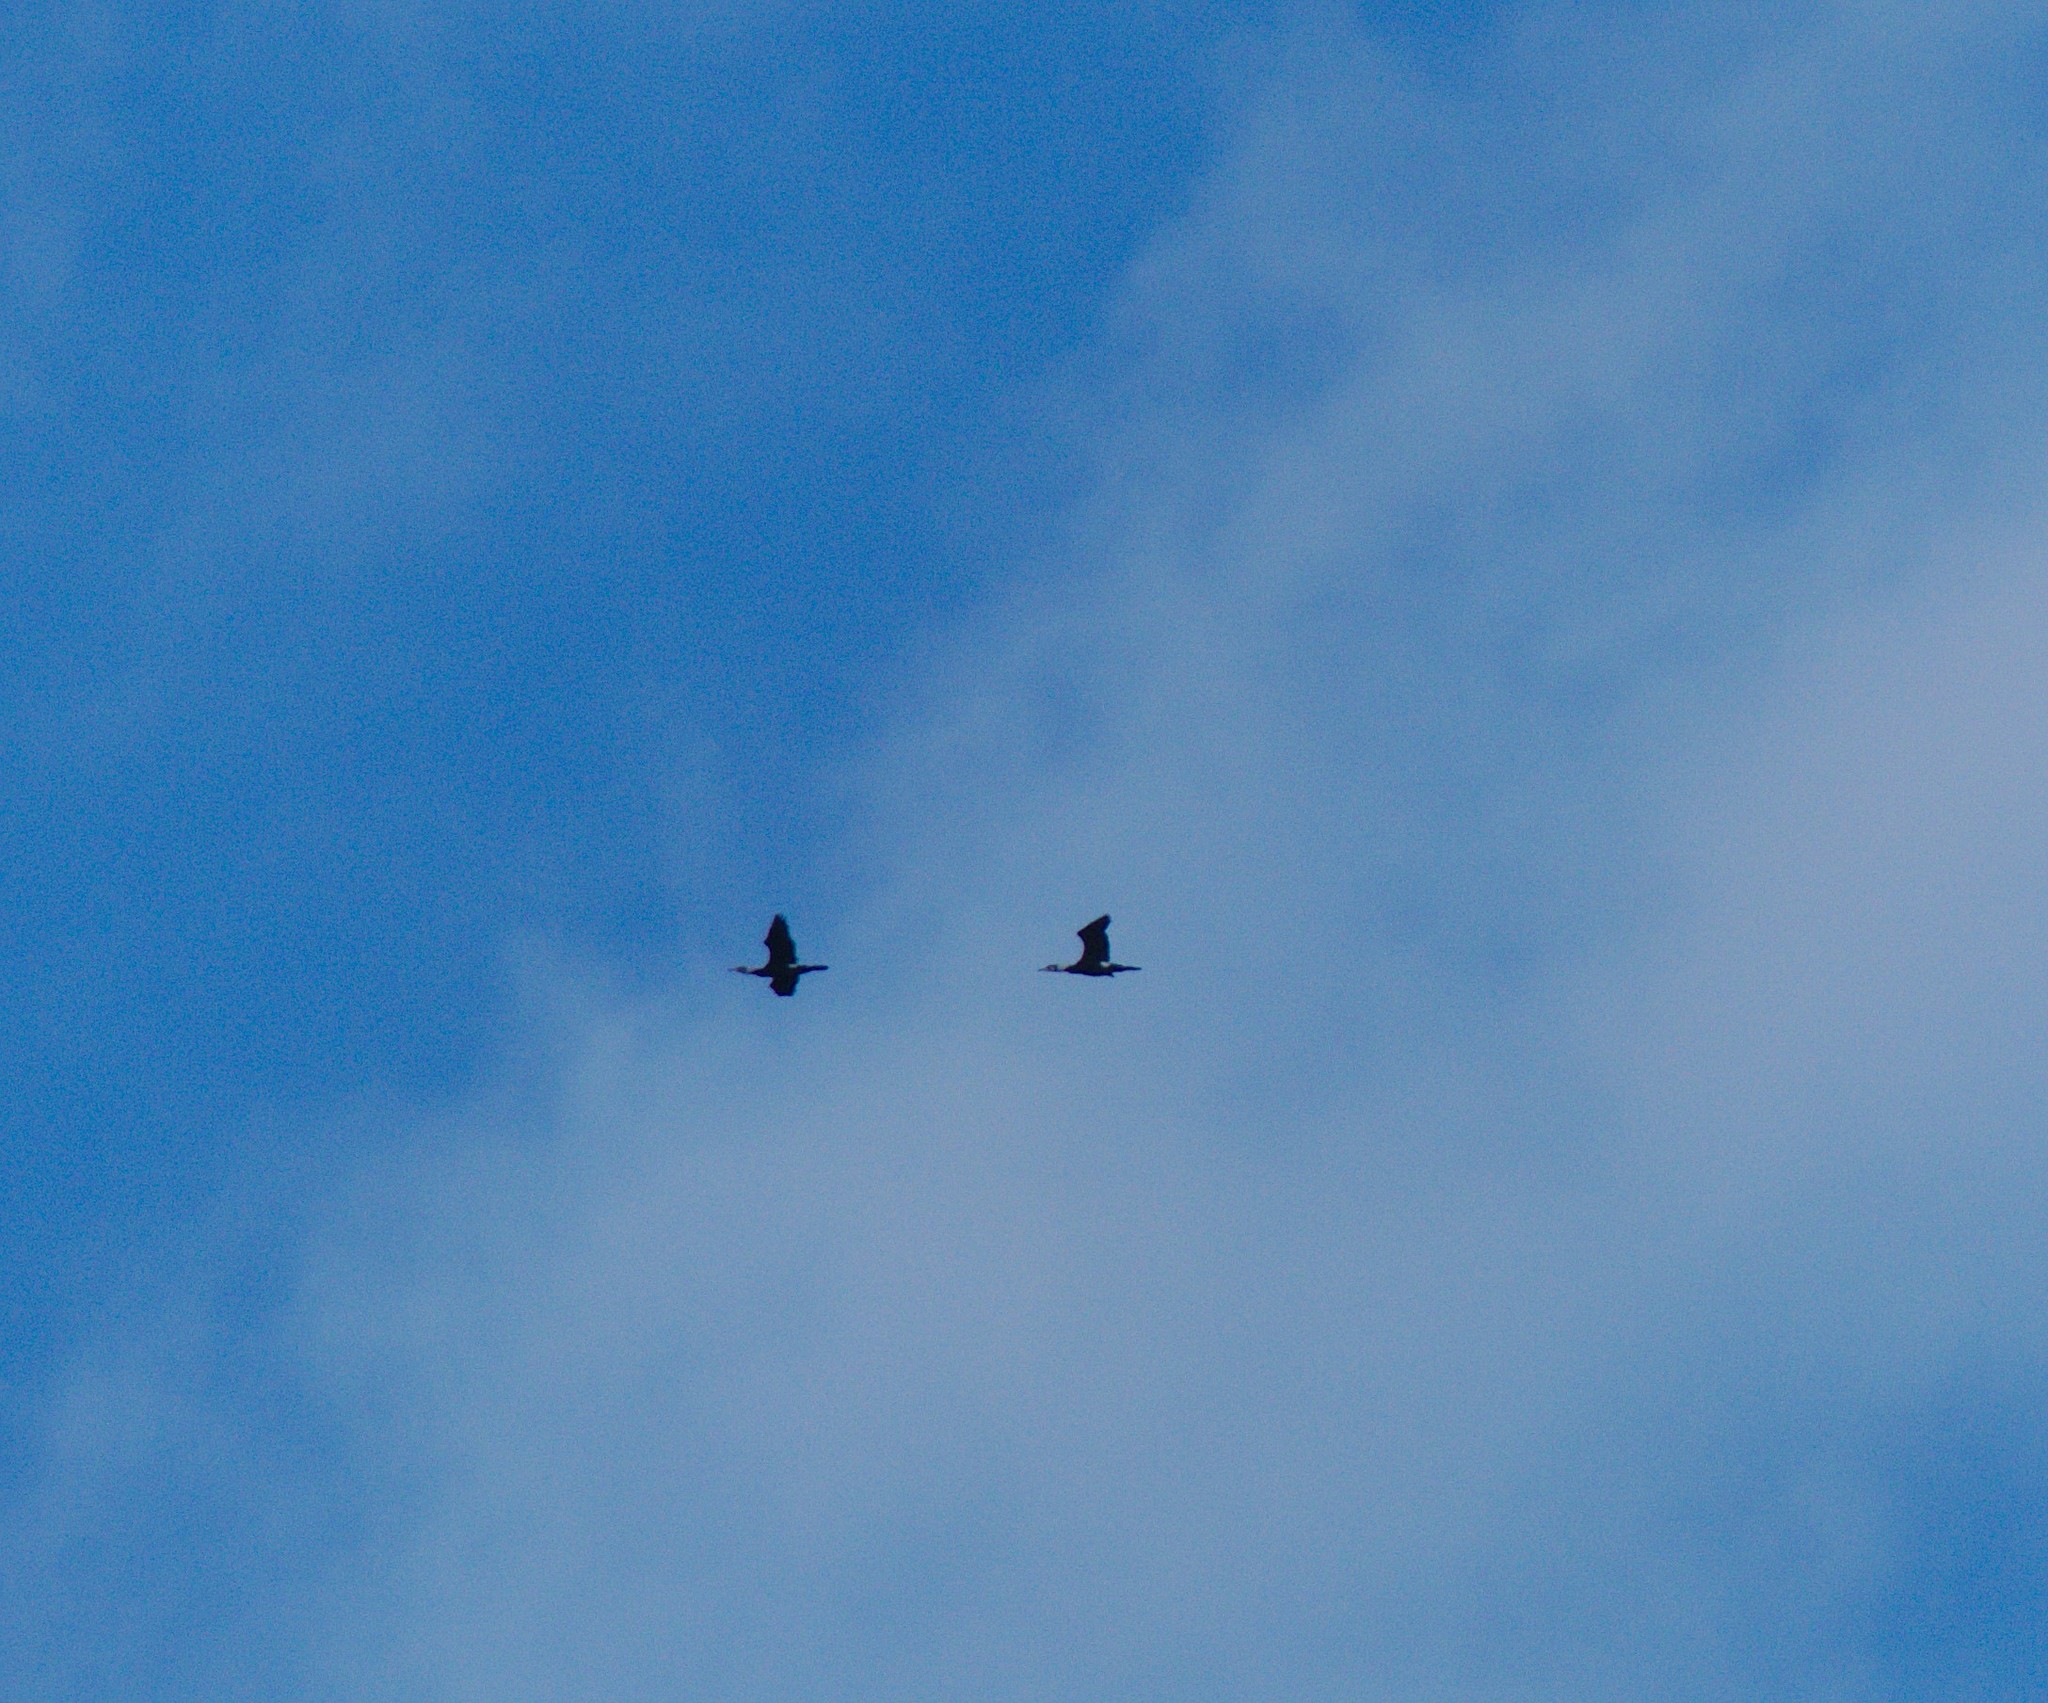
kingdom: Animalia
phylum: Chordata
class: Aves
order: Suliformes
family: Phalacrocoracidae
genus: Phalacrocorax
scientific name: Phalacrocorax carbo
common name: Great cormorant
